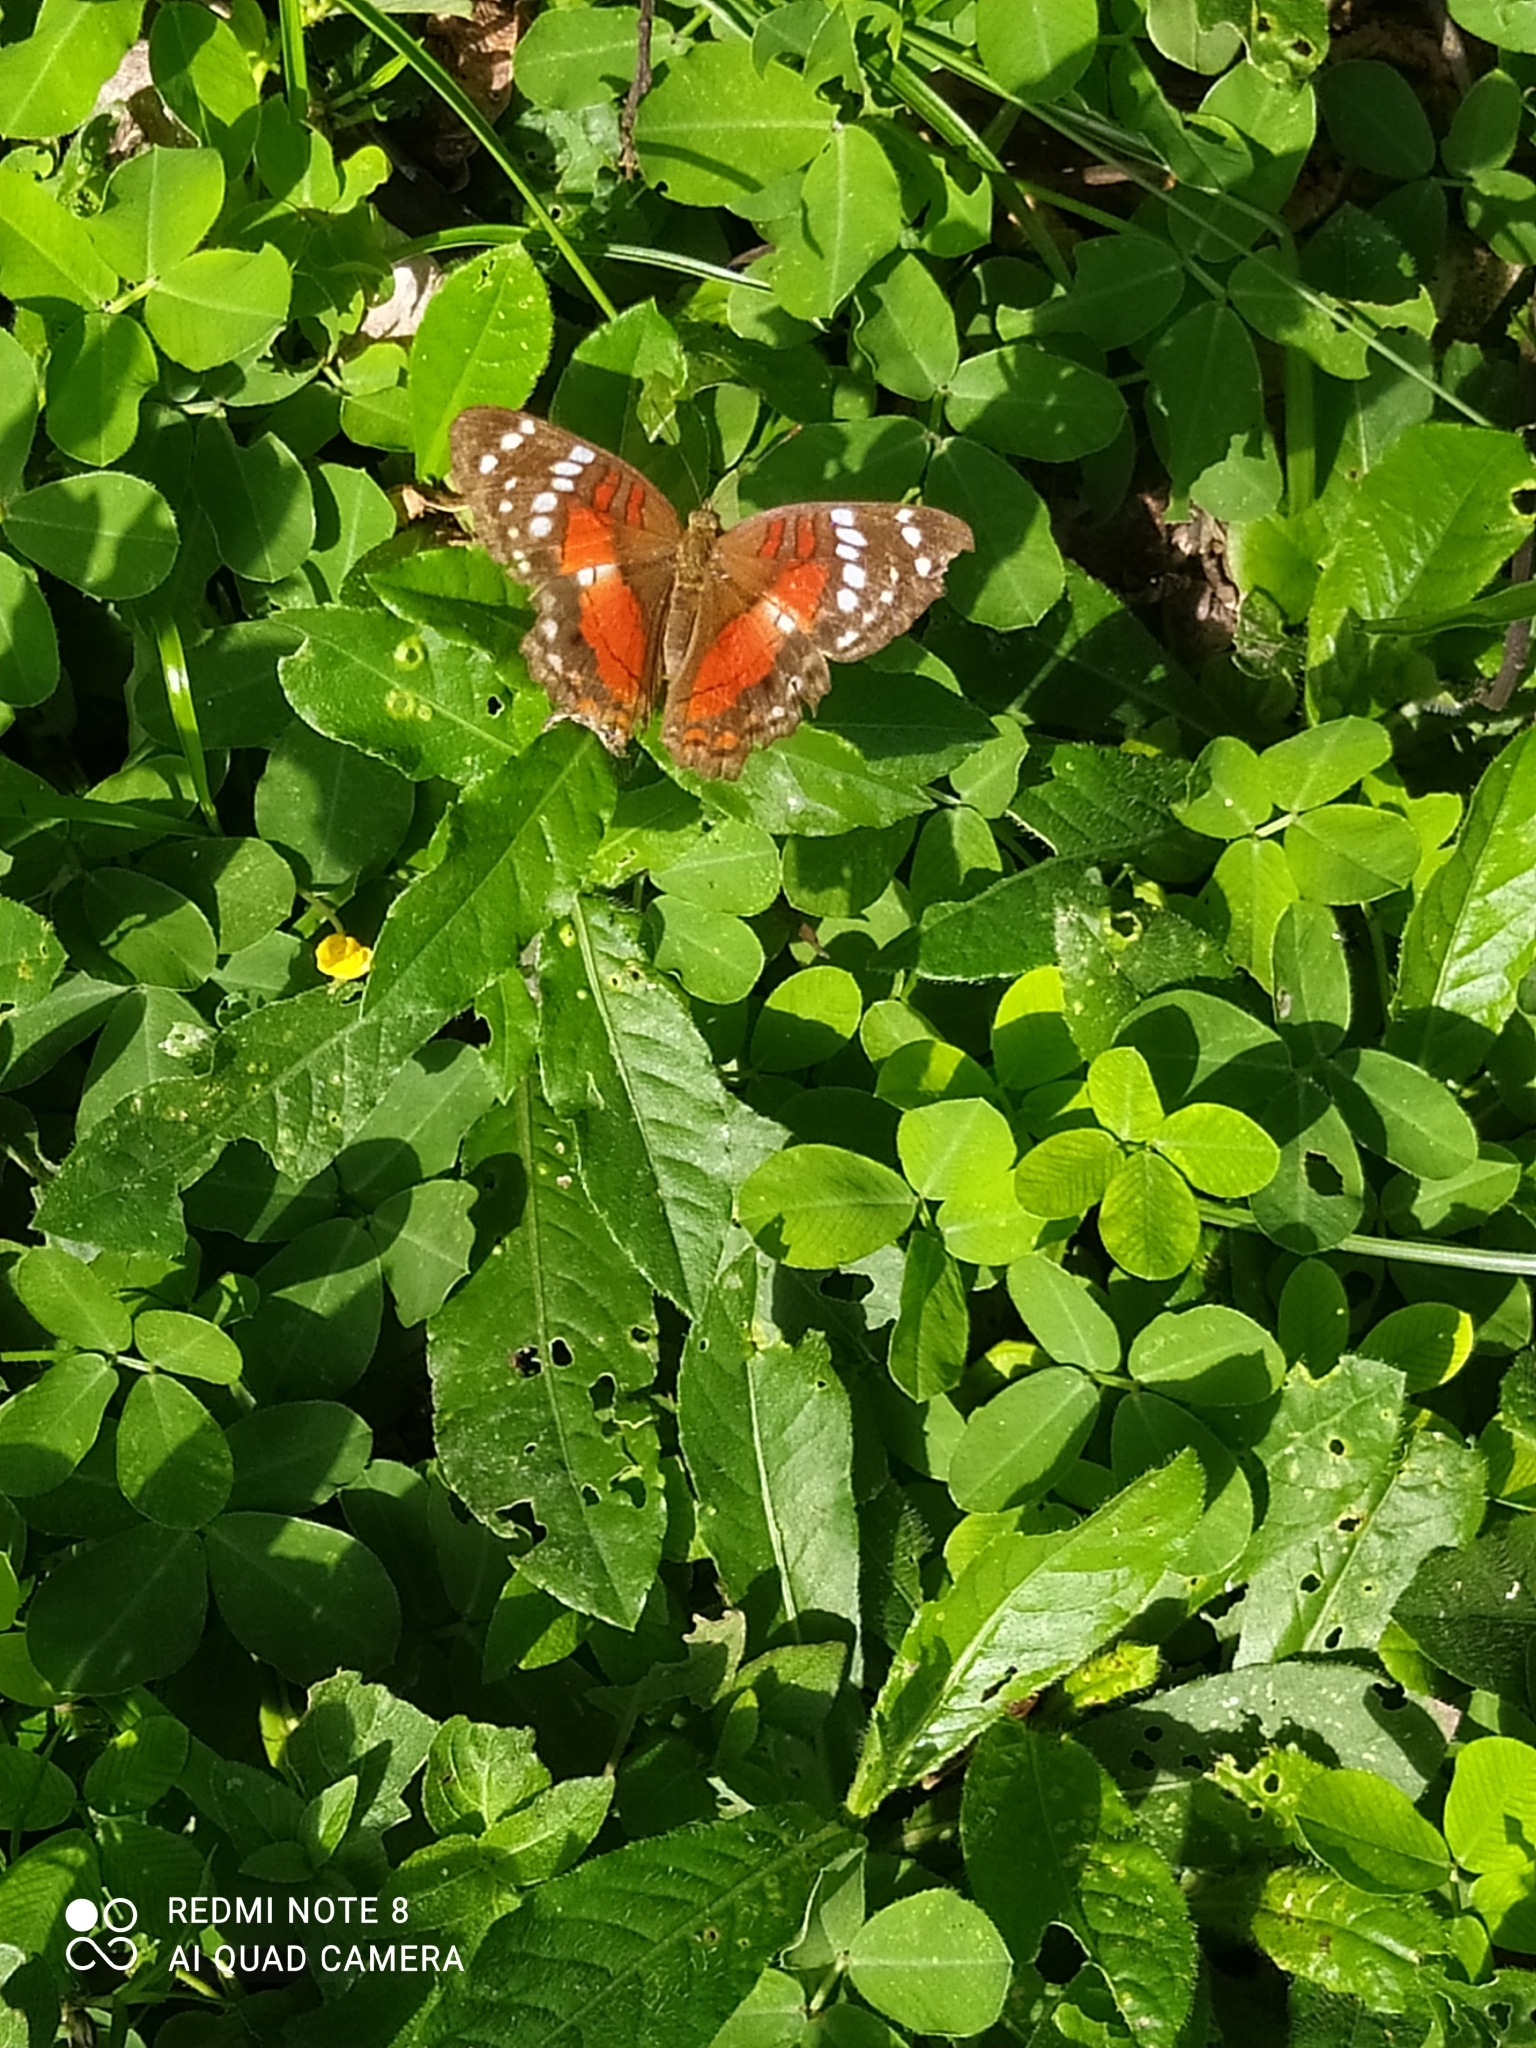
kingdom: Animalia
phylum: Arthropoda
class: Insecta
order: Lepidoptera
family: Nymphalidae
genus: Anartia
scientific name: Anartia amathea
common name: Red peacock
